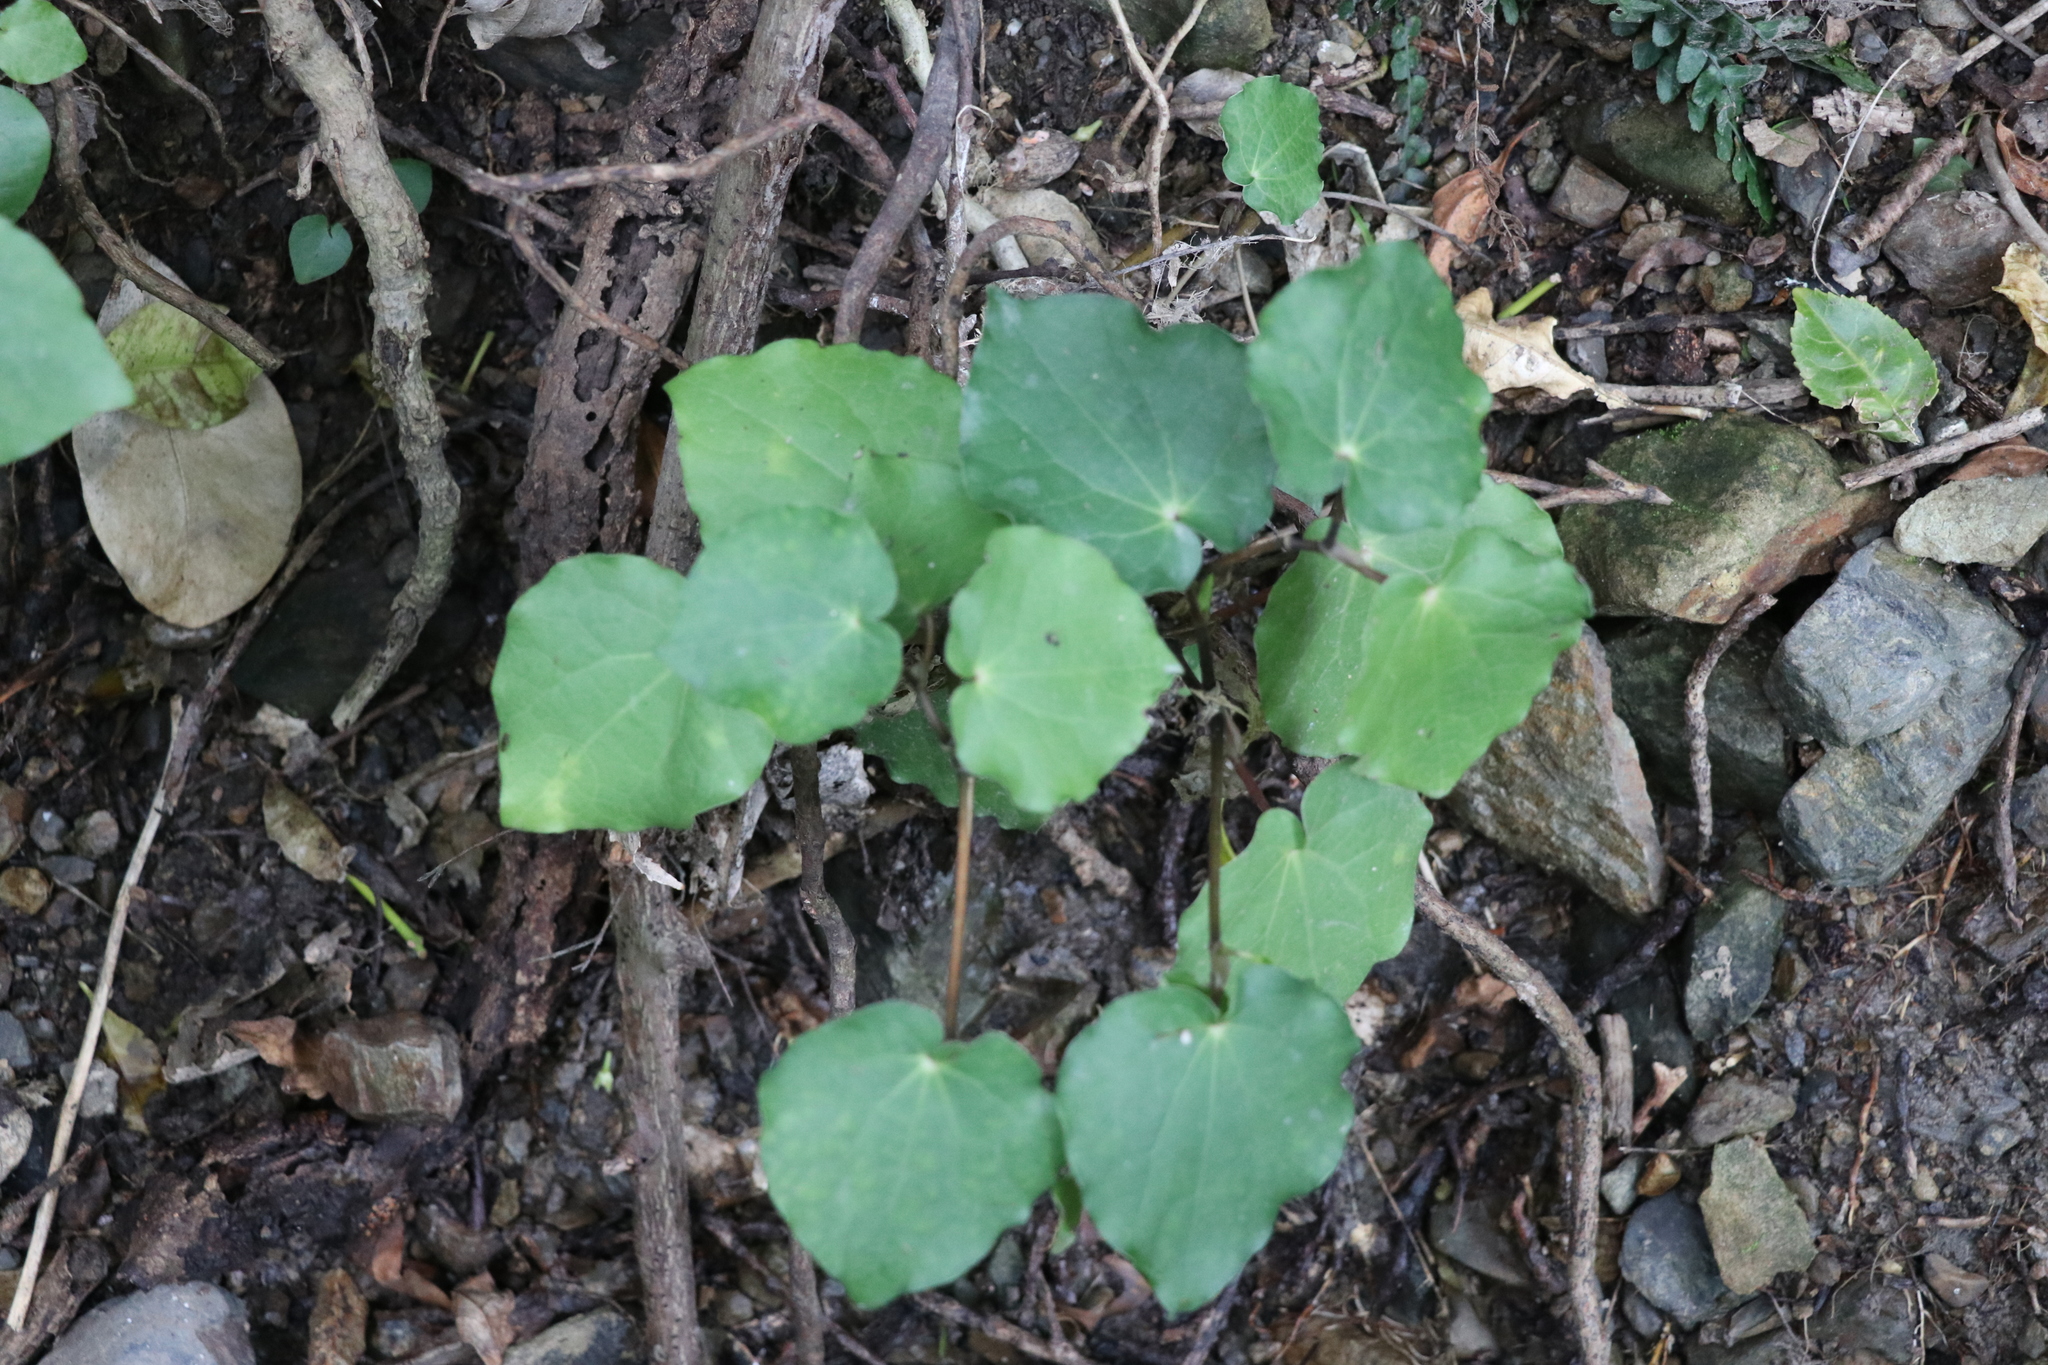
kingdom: Plantae
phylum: Tracheophyta
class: Magnoliopsida
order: Piperales
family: Piperaceae
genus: Macropiper
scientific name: Macropiper excelsum
